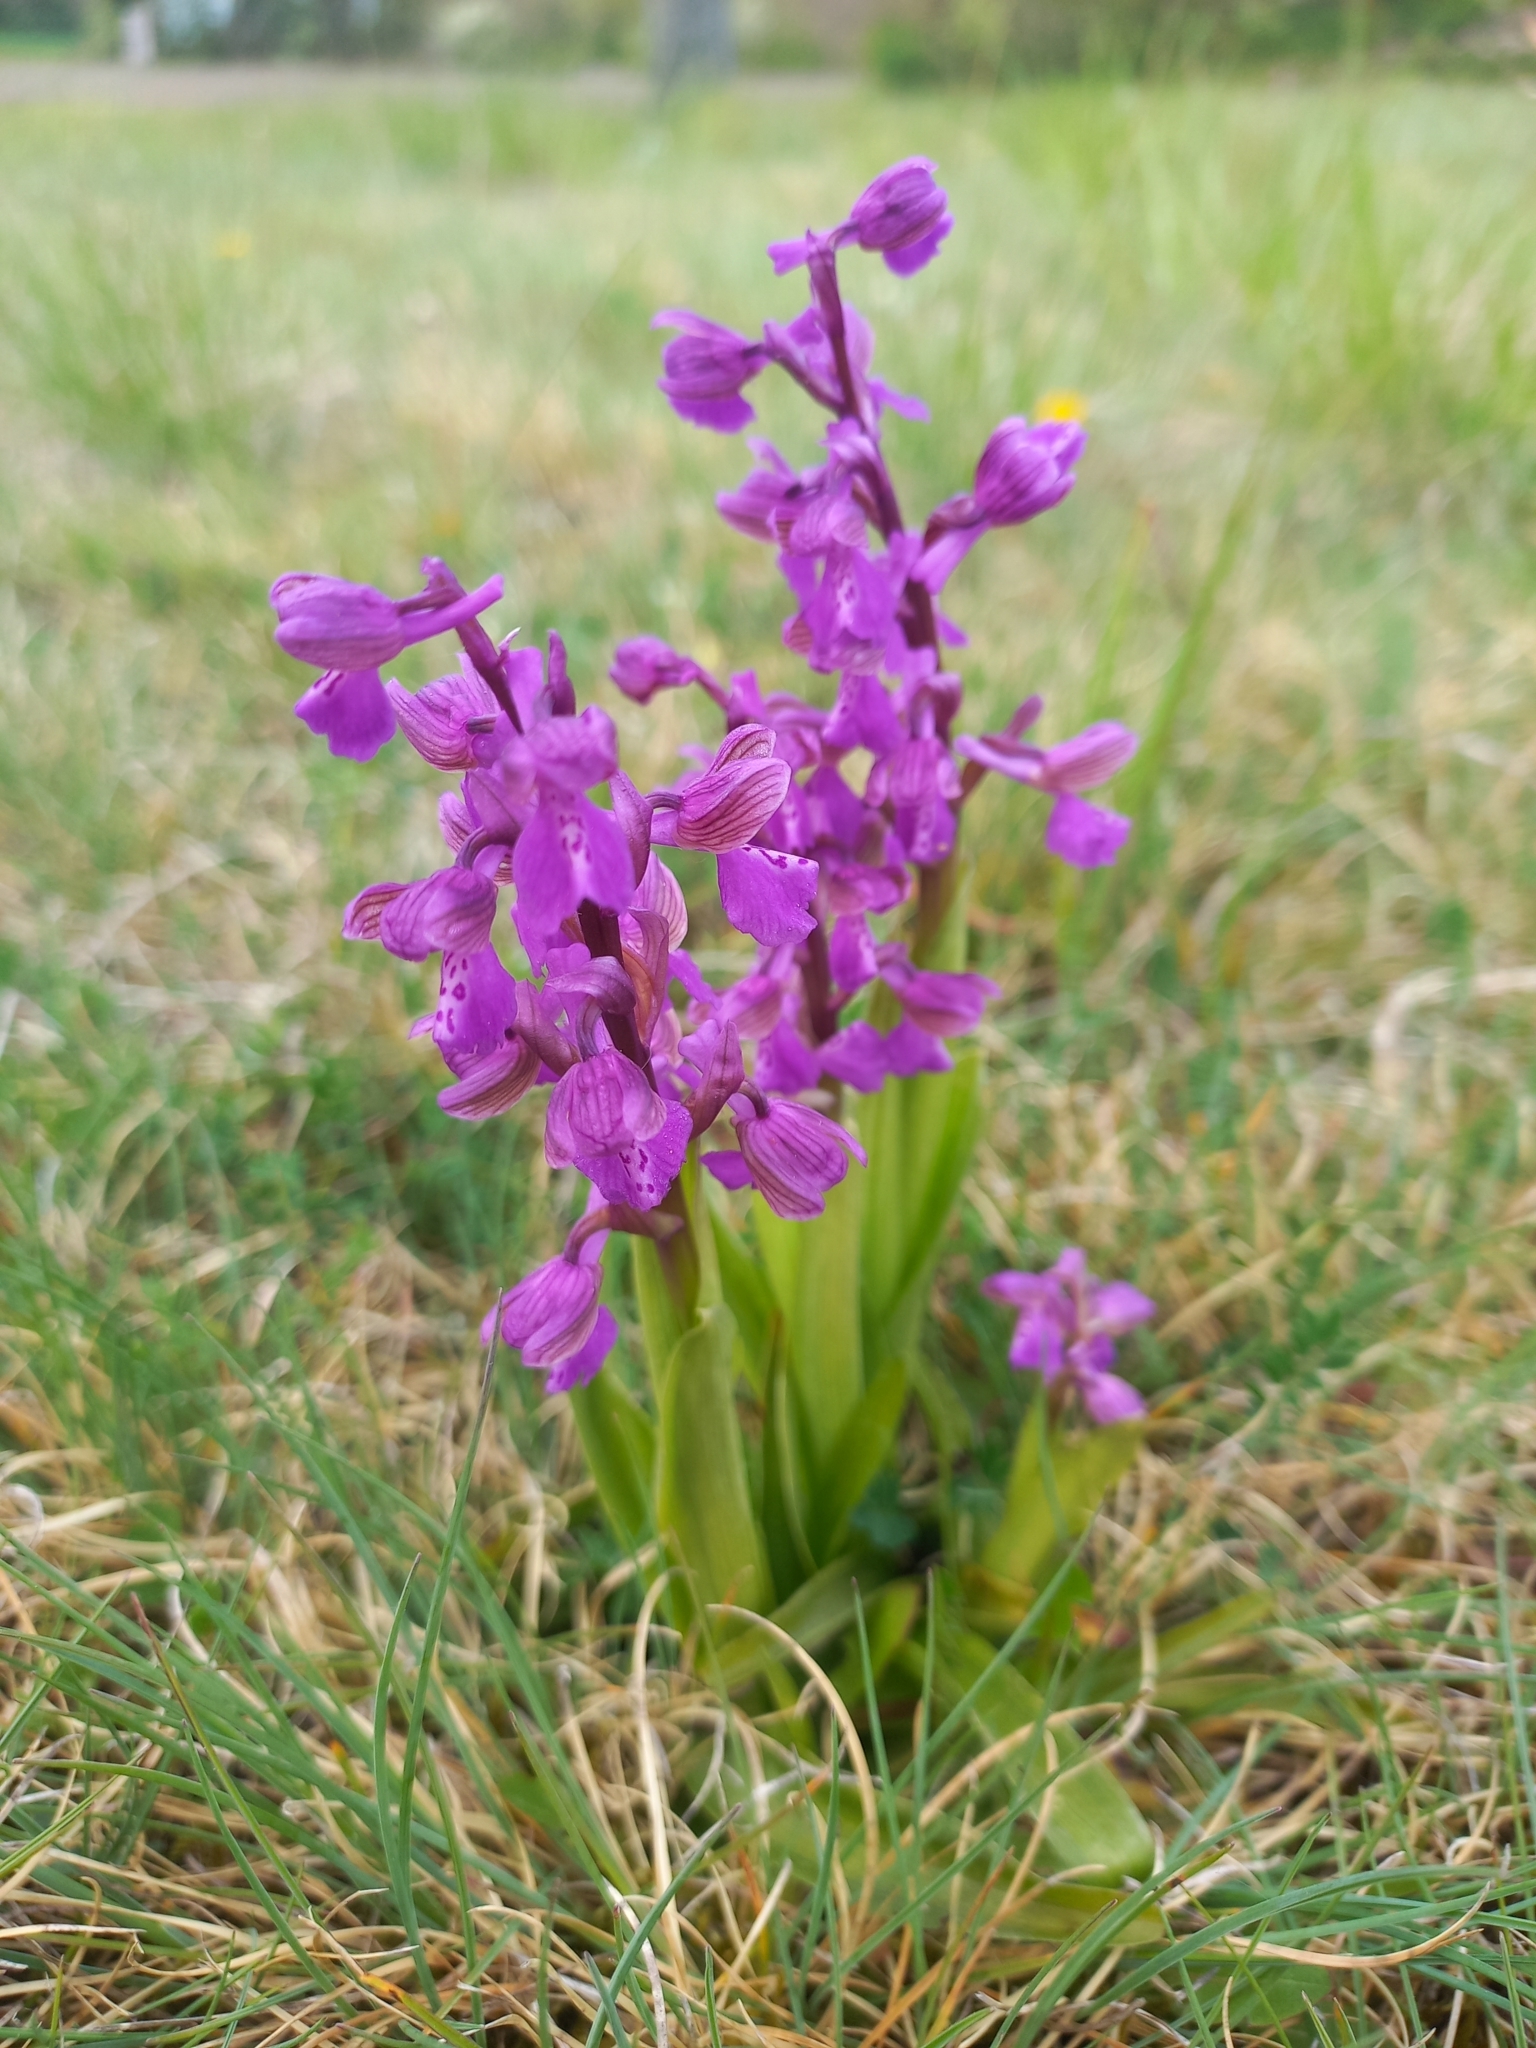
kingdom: Plantae
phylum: Tracheophyta
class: Liliopsida
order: Asparagales
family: Orchidaceae
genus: Anacamptis
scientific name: Anacamptis morio
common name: Green-winged orchid
